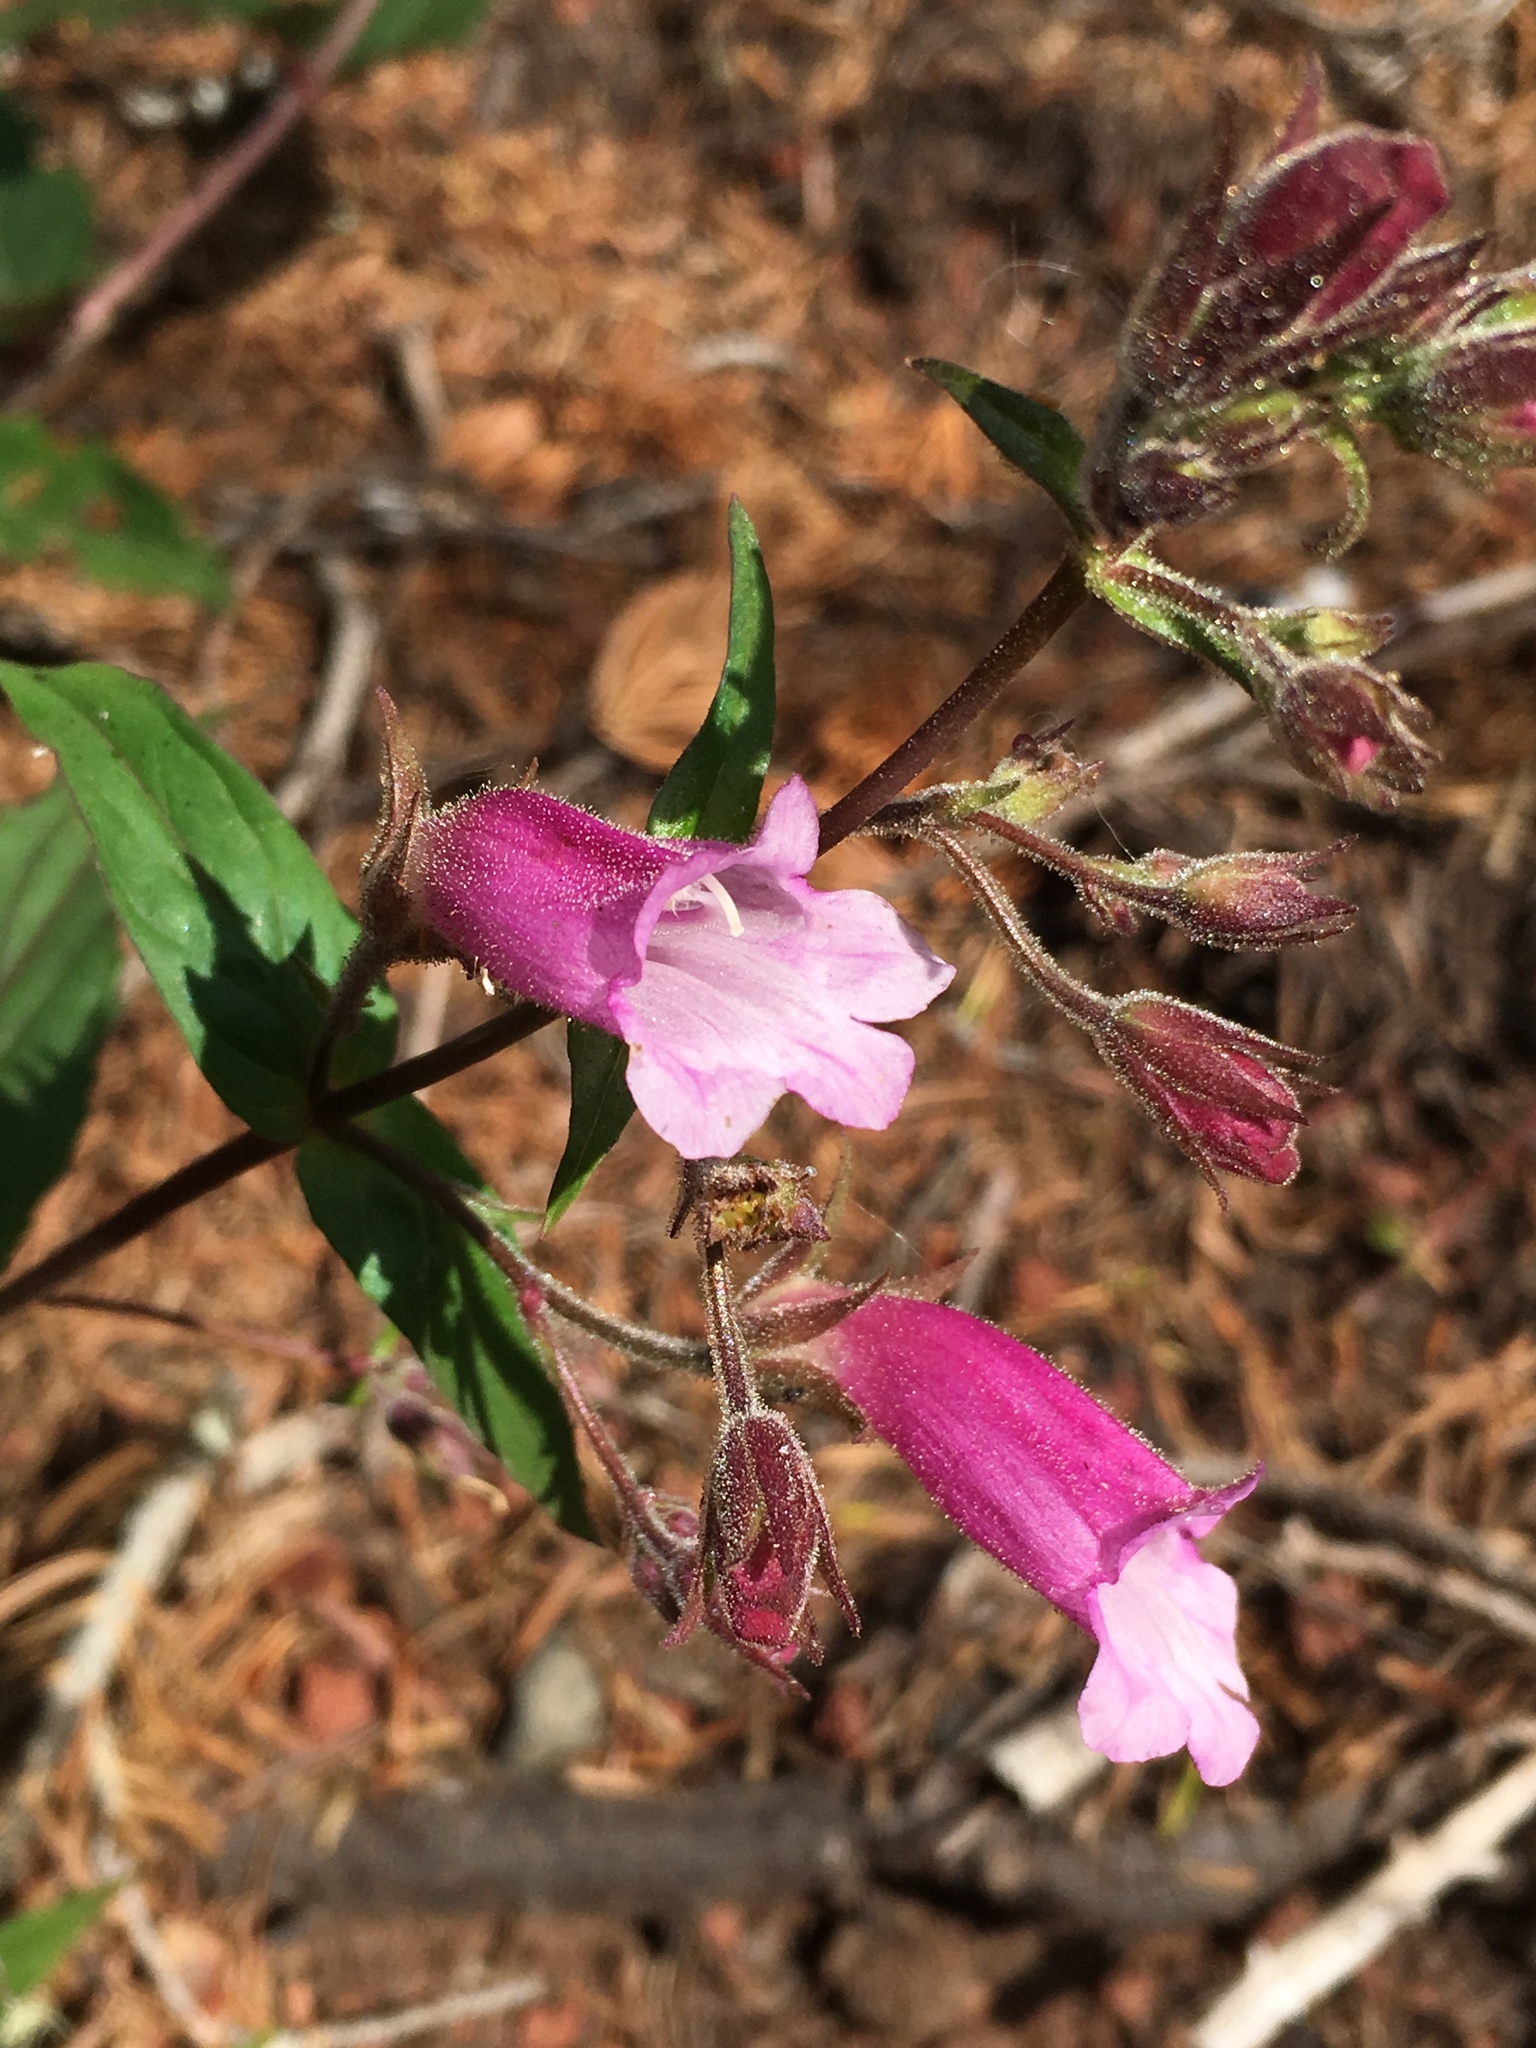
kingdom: Plantae
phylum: Tracheophyta
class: Magnoliopsida
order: Lamiales
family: Plantaginaceae
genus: Nothochelone
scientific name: Nothochelone nemorosa
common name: Woodland beardtongue
